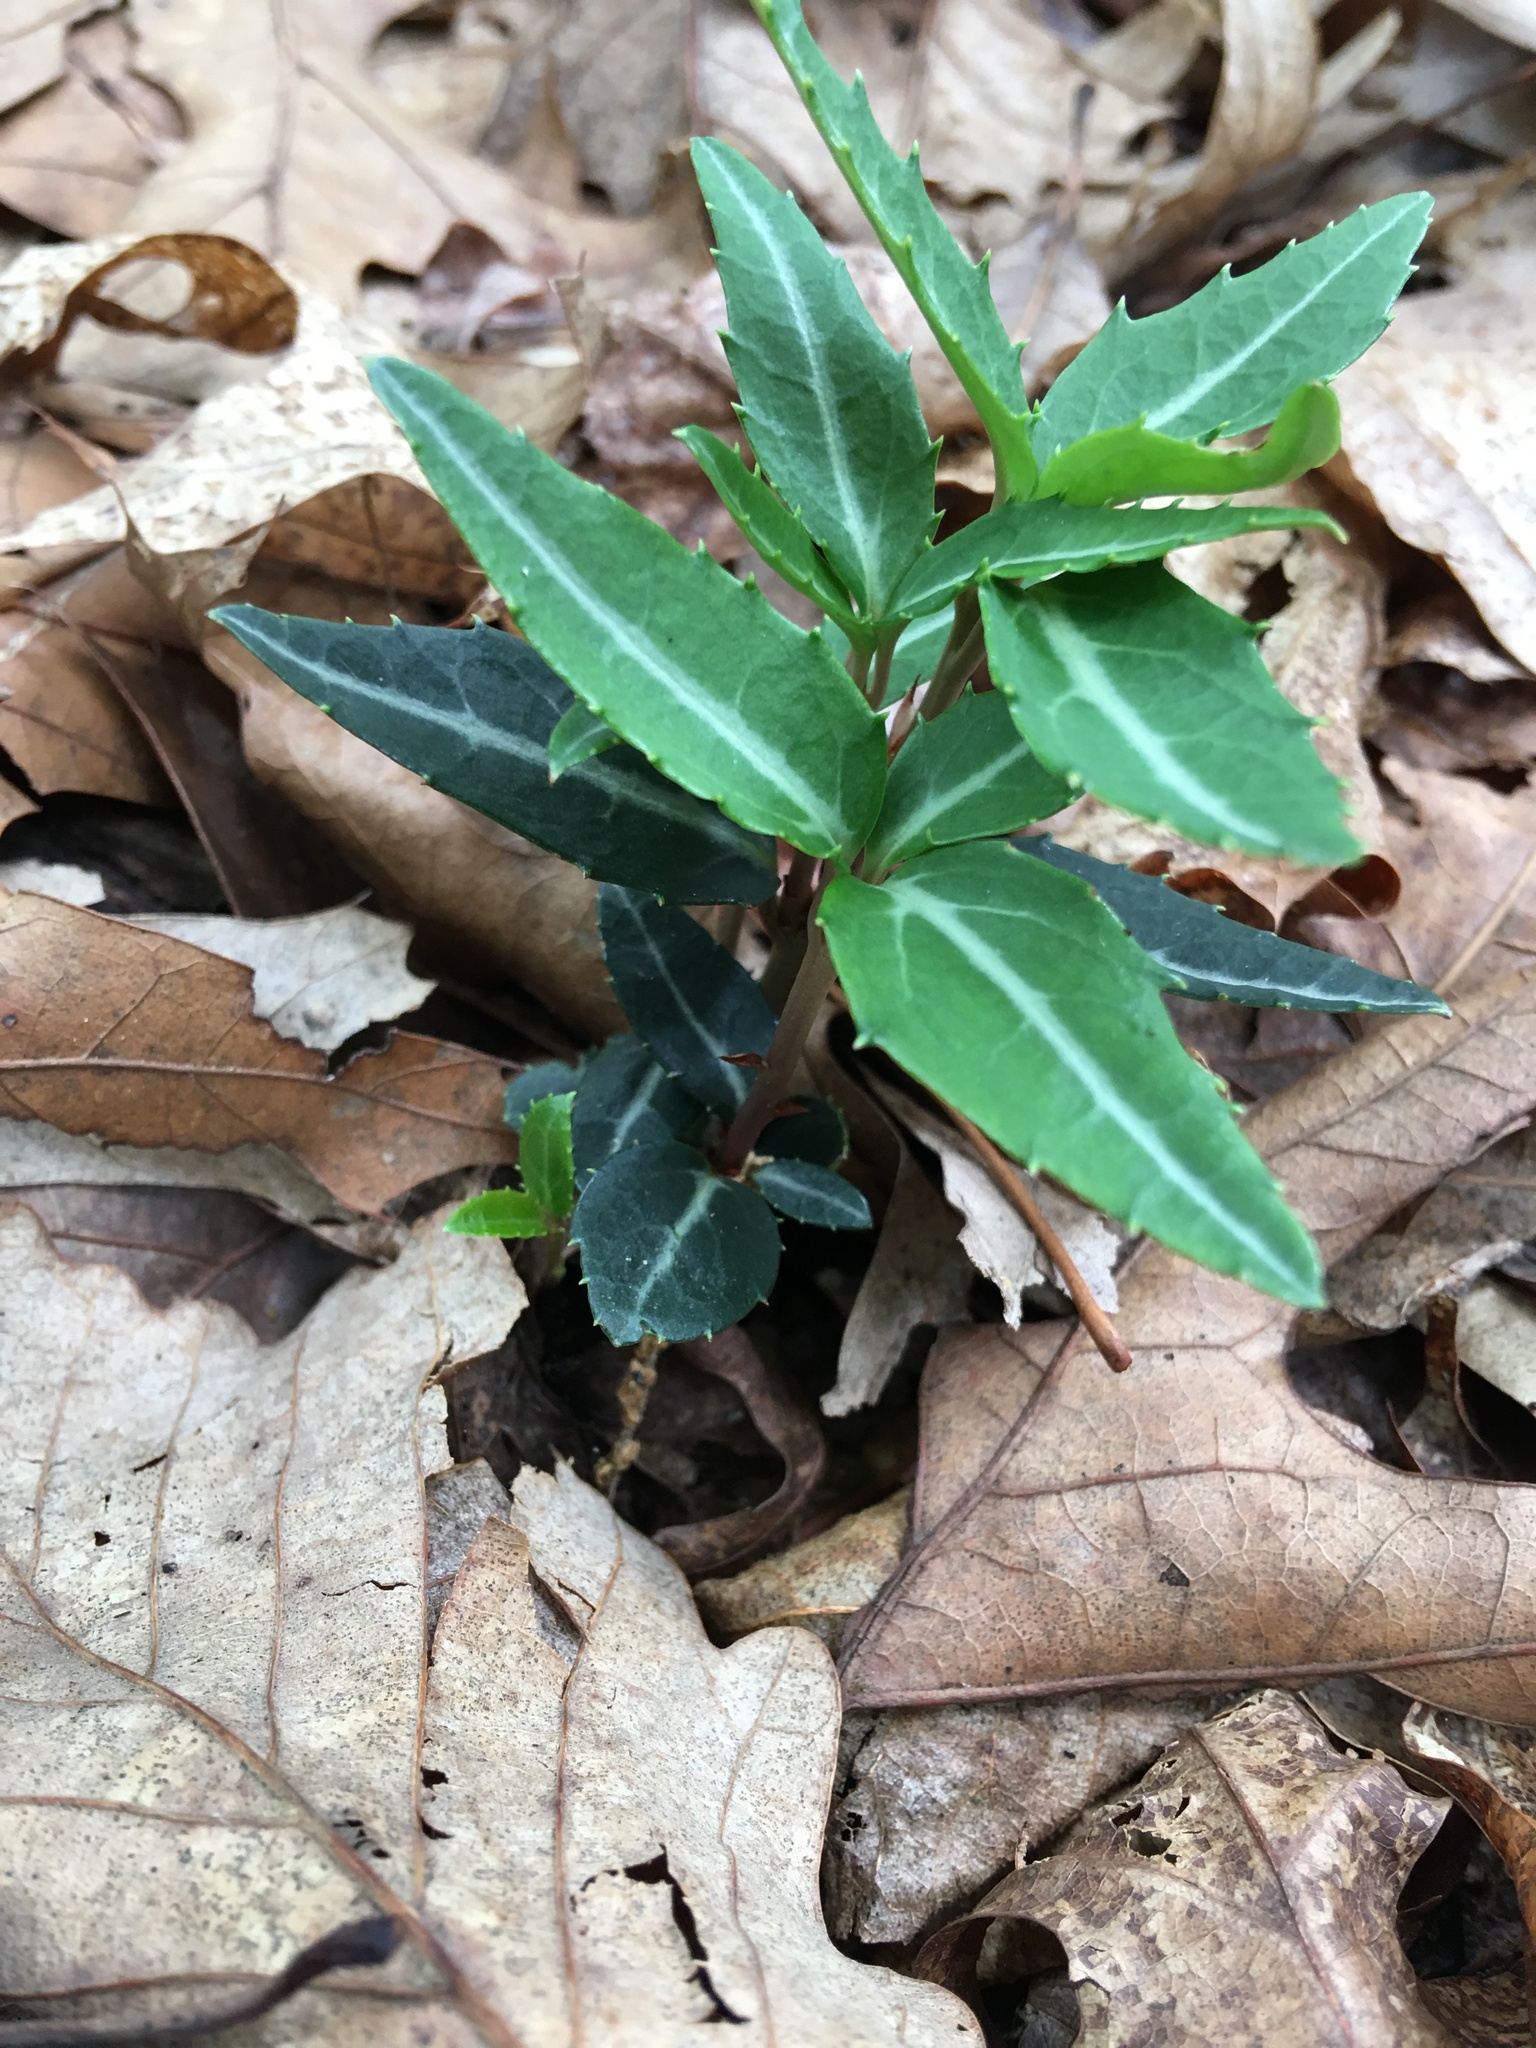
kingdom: Plantae
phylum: Tracheophyta
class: Magnoliopsida
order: Ericales
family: Ericaceae
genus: Chimaphila
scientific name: Chimaphila maculata
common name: Spotted pipsissewa
